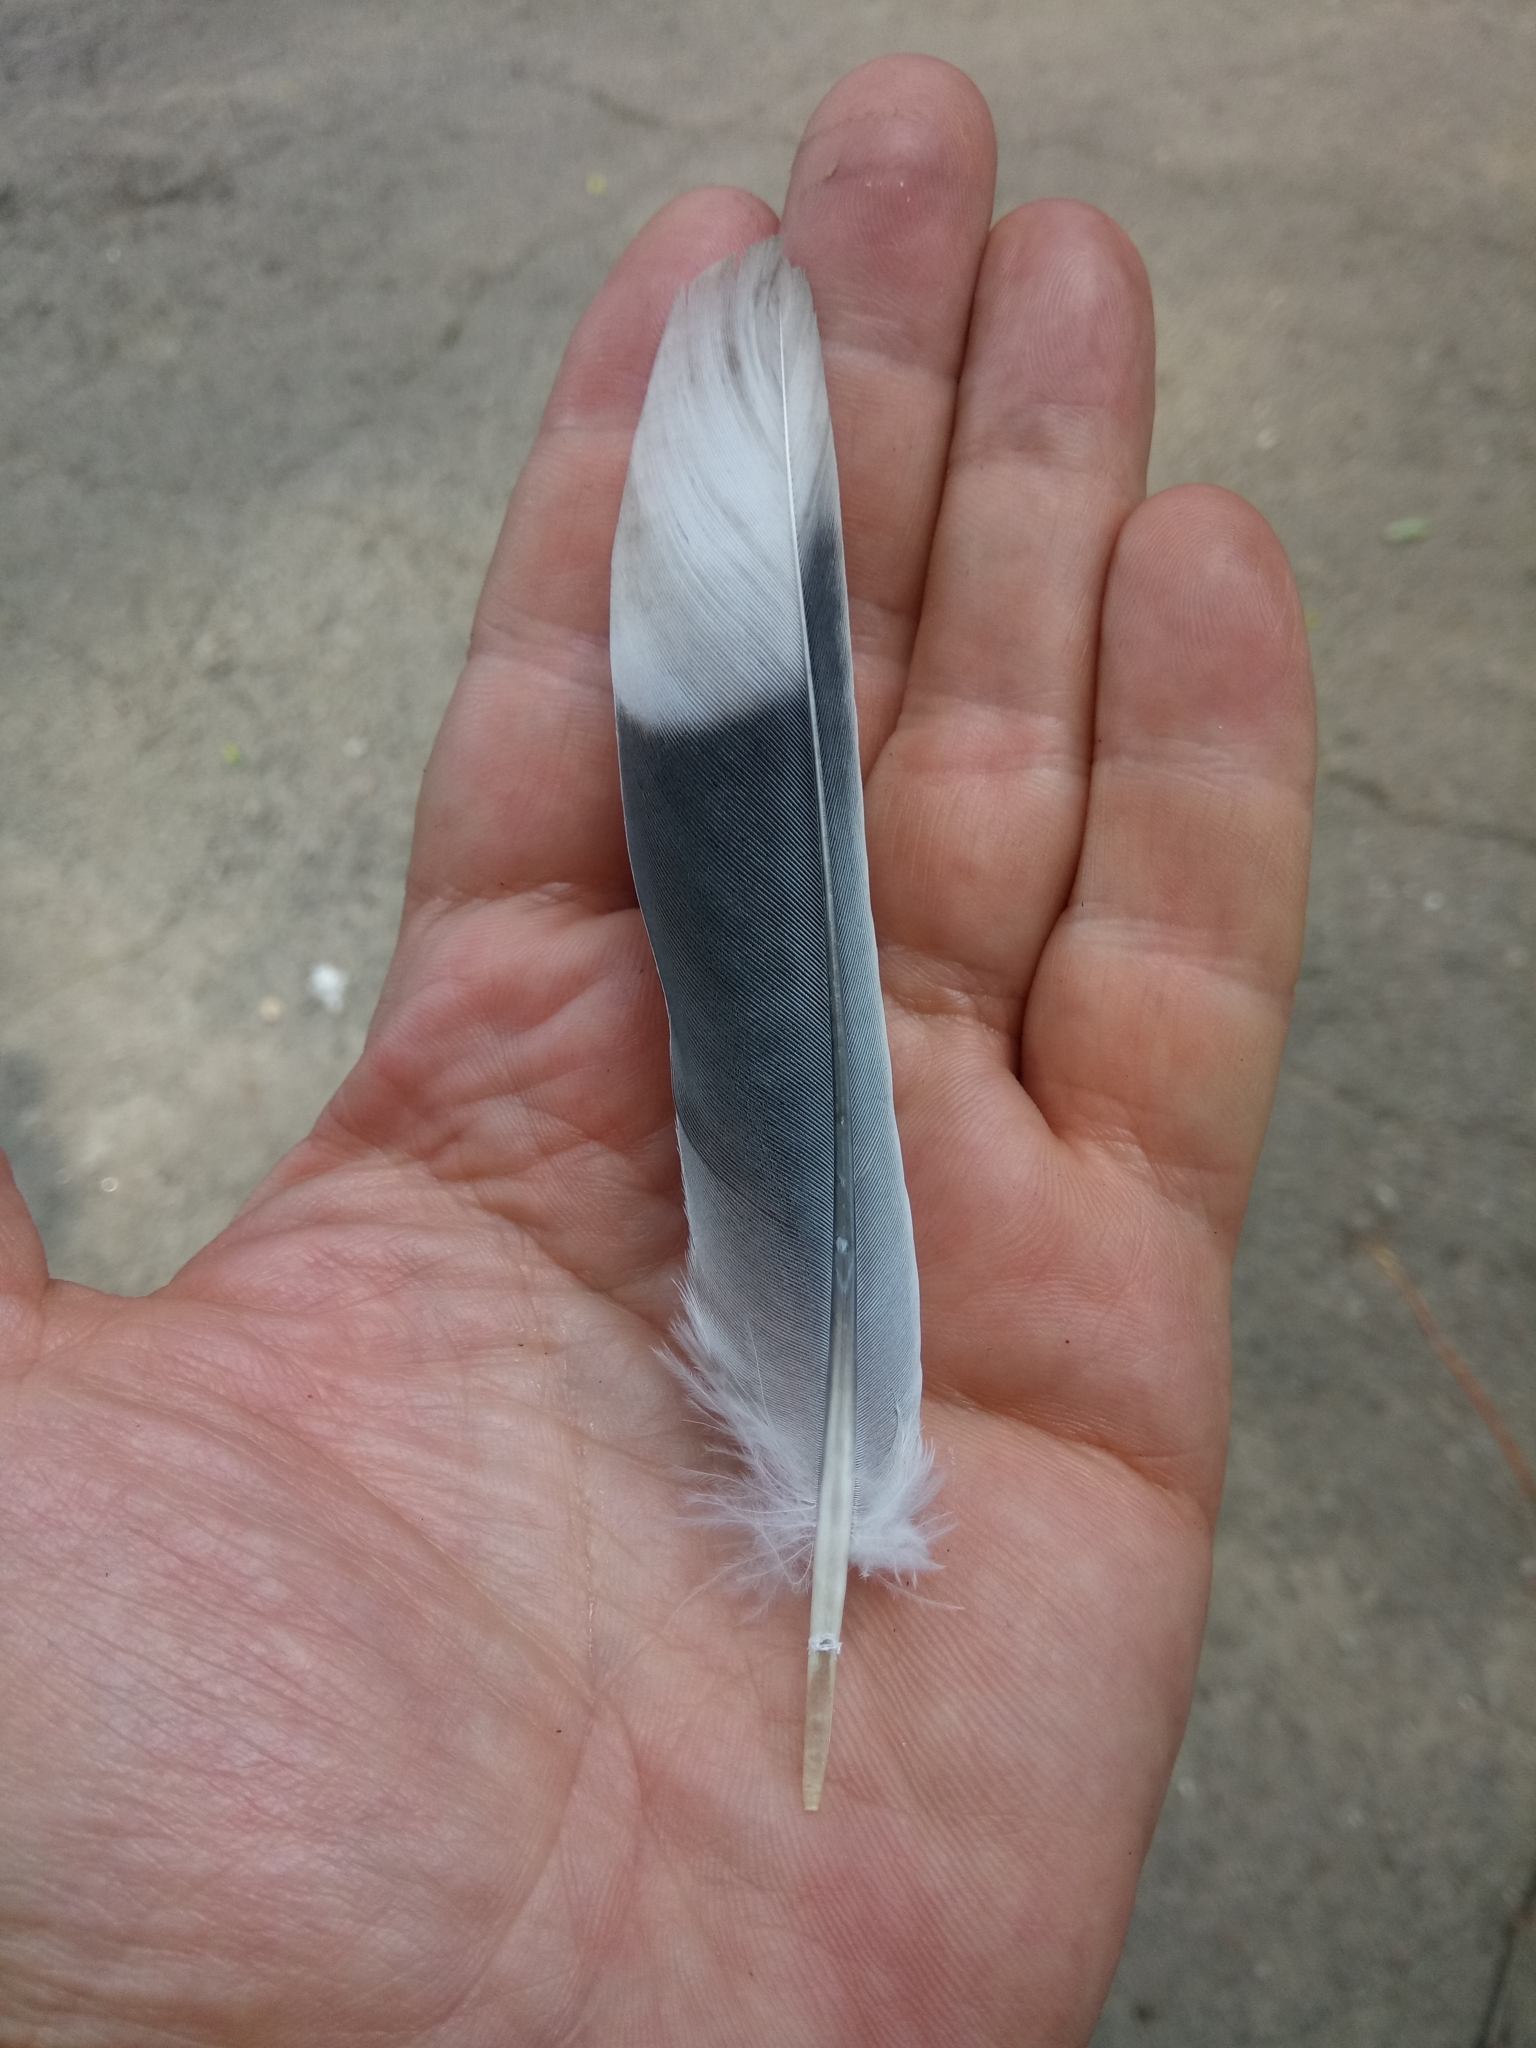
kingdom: Animalia
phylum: Chordata
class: Aves
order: Columbiformes
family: Columbidae
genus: Streptopelia
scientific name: Streptopelia decaocto
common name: Eurasian collared dove
